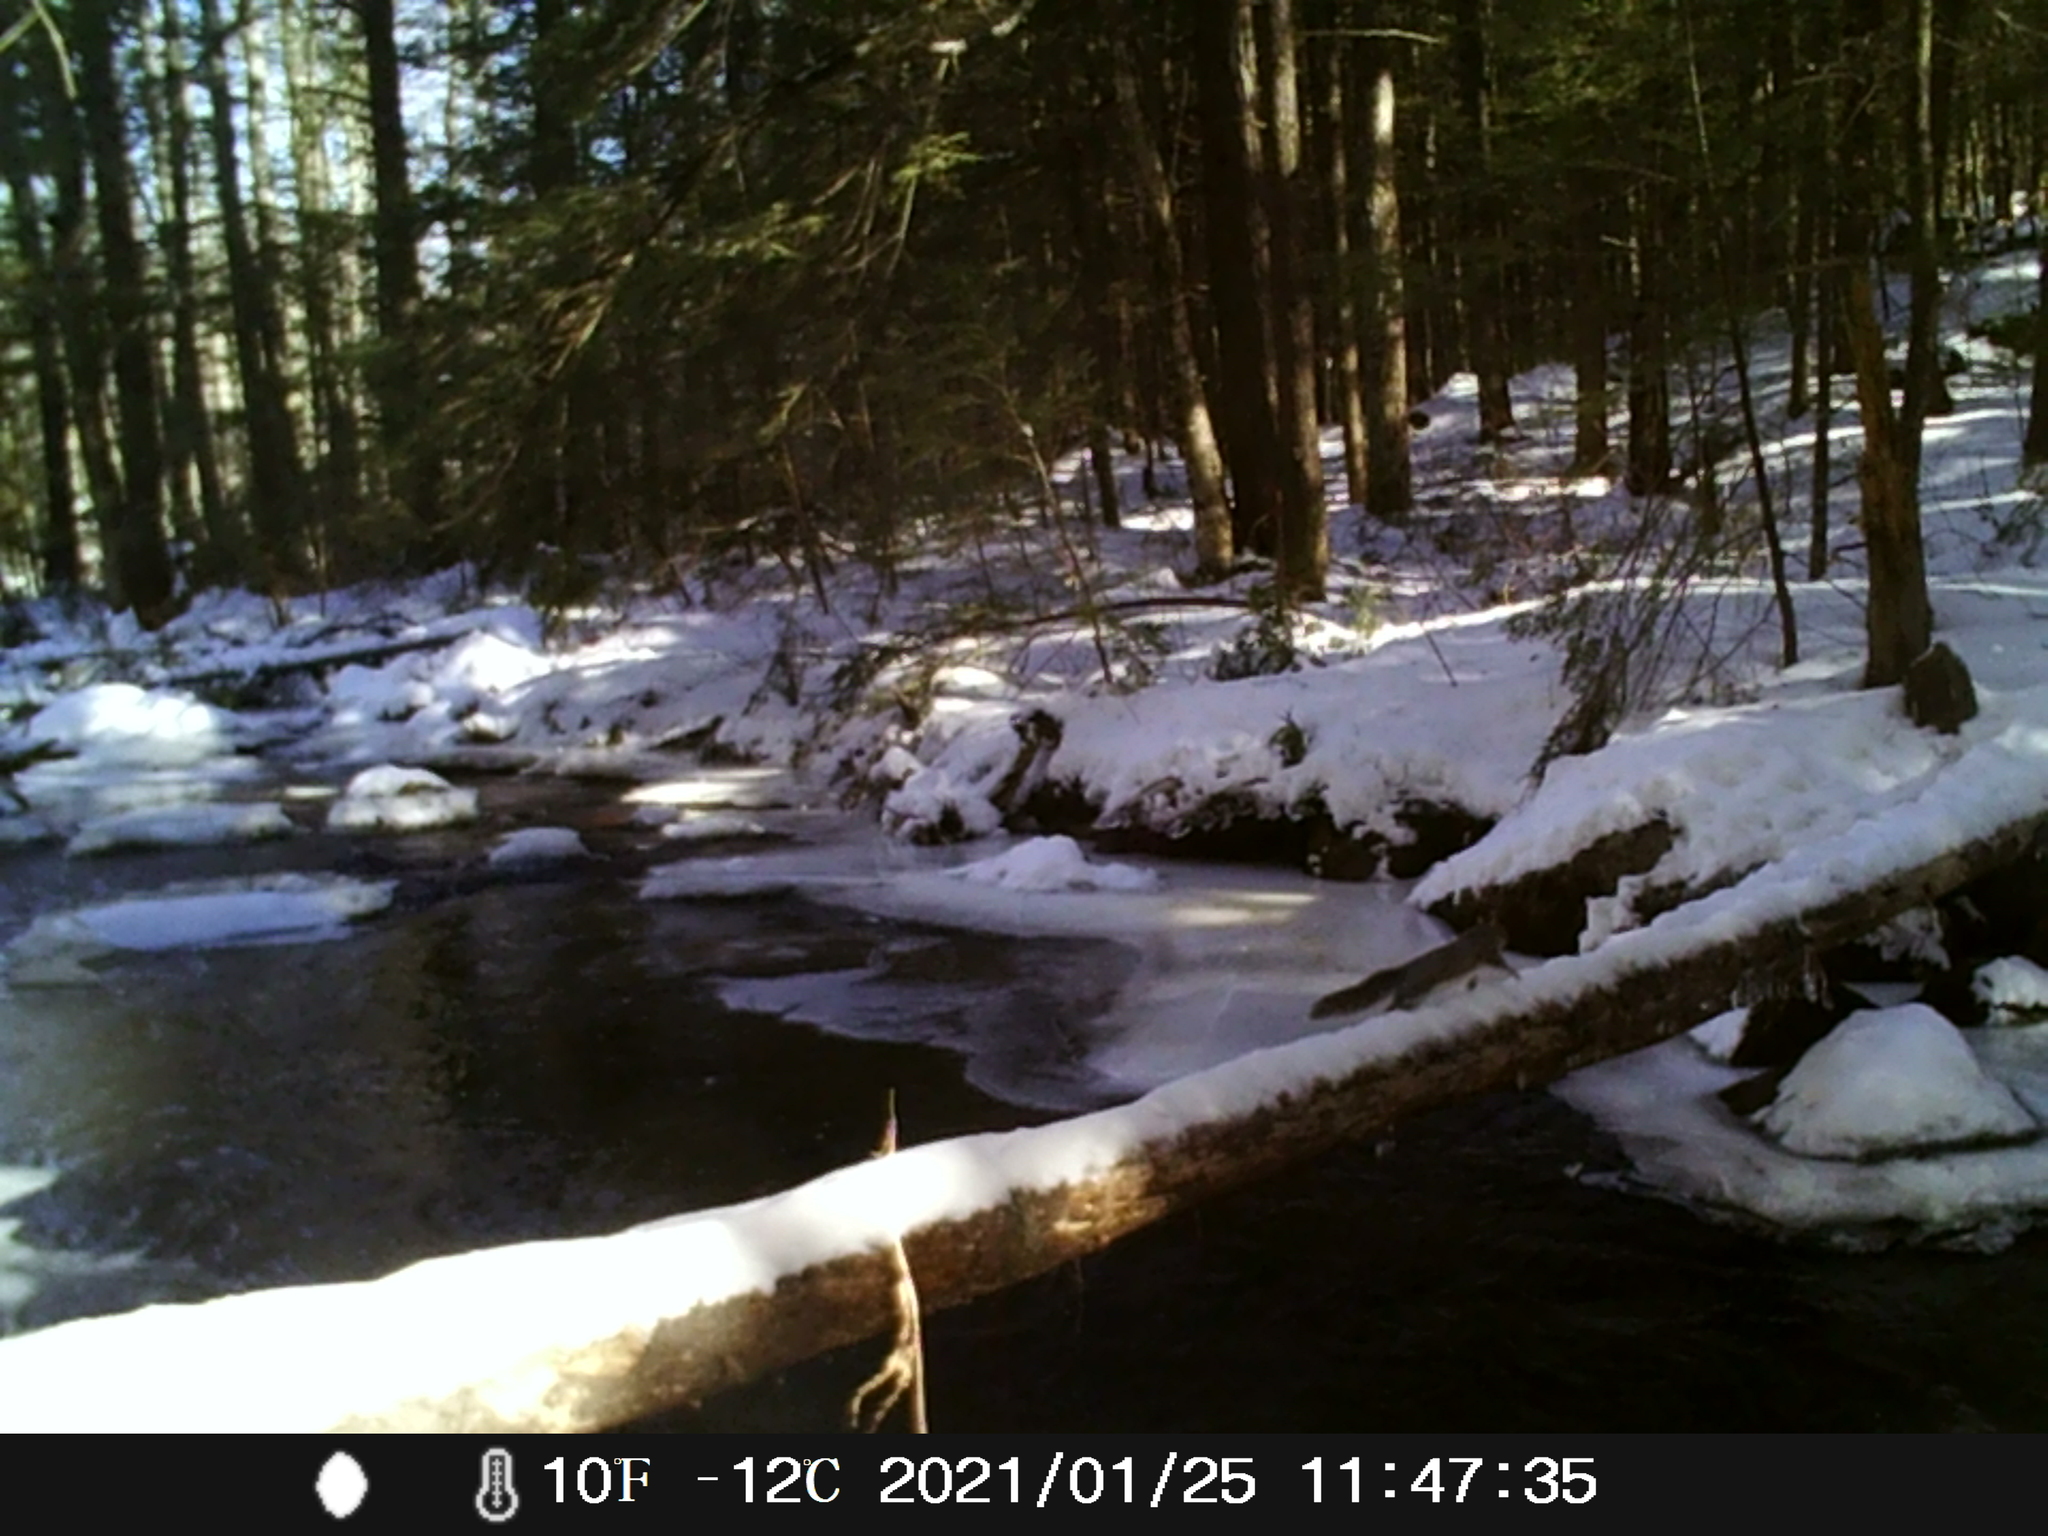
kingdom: Animalia
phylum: Chordata
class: Mammalia
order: Rodentia
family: Sciuridae
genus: Sciurus
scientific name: Sciurus carolinensis
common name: Eastern gray squirrel
